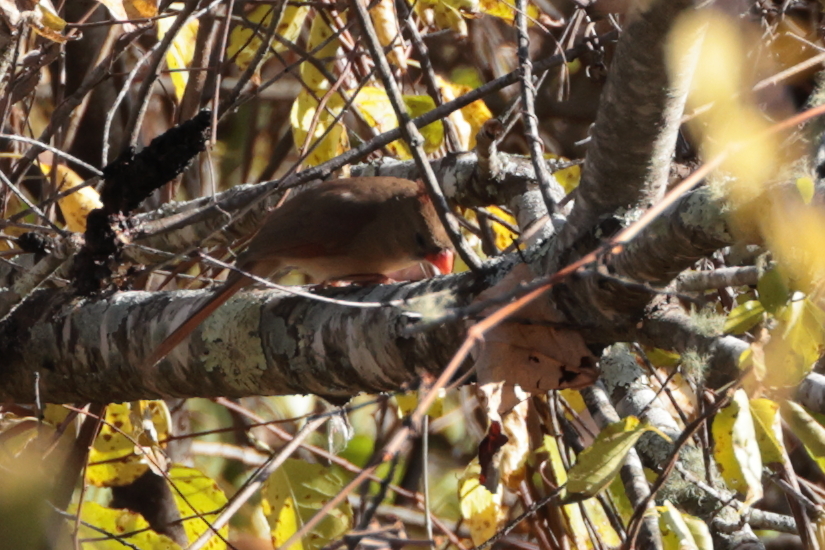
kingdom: Animalia
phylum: Chordata
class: Aves
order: Passeriformes
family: Cardinalidae
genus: Cardinalis
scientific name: Cardinalis cardinalis
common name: Northern cardinal
